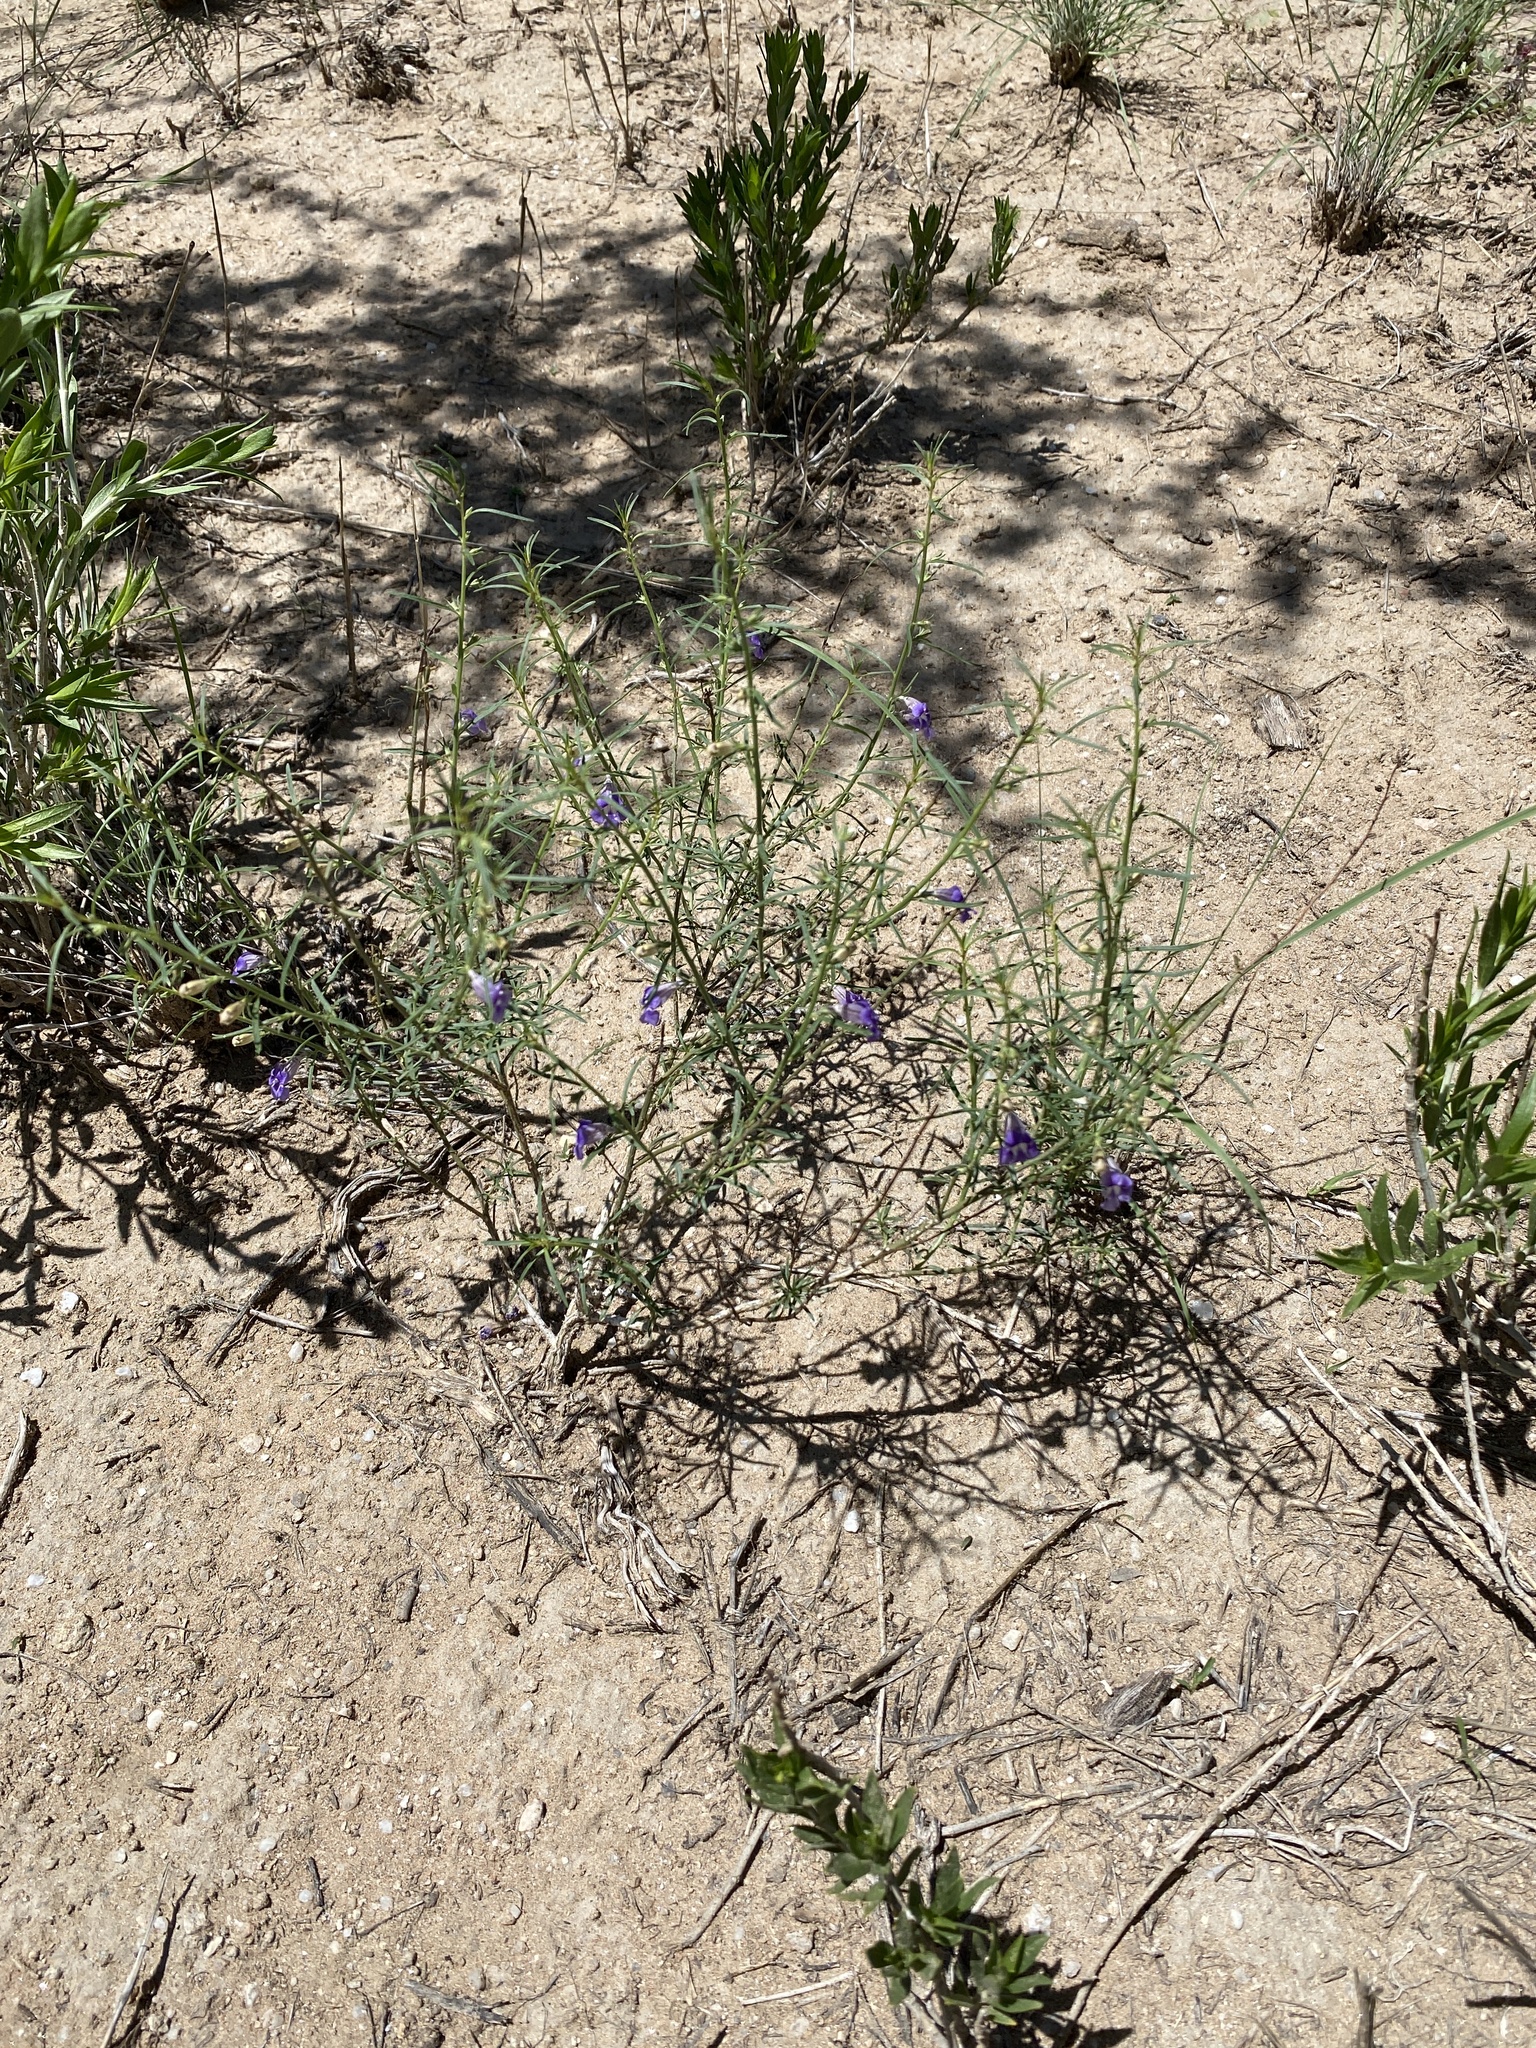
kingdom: Plantae
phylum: Tracheophyta
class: Magnoliopsida
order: Lamiales
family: Scrophulariaceae
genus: Peliostomum
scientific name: Peliostomum leucorrhizum
